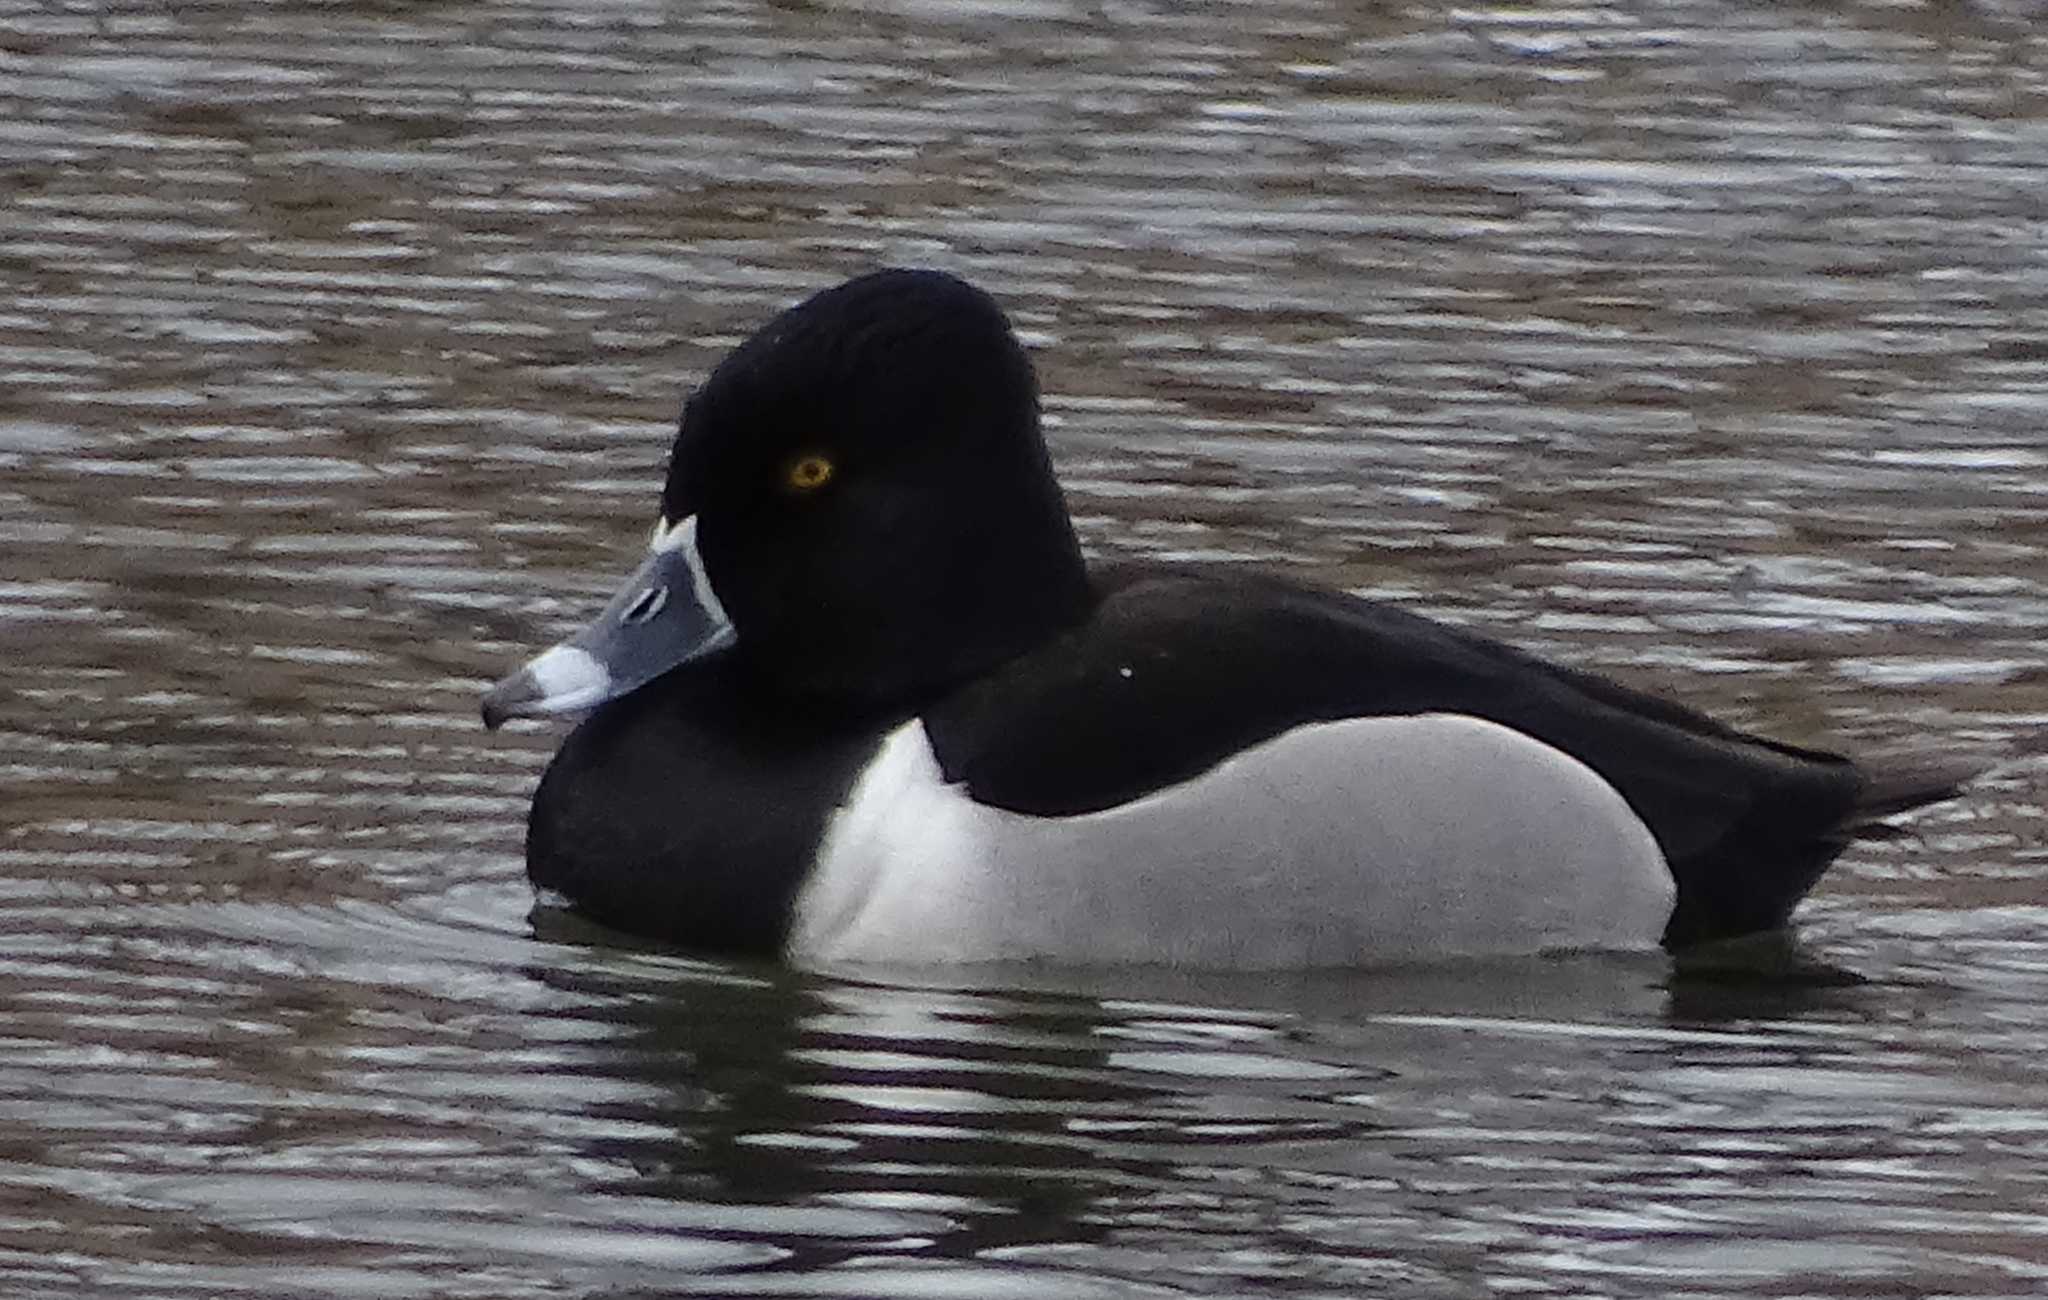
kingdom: Animalia
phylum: Chordata
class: Aves
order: Anseriformes
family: Anatidae
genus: Aythya
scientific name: Aythya collaris
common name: Ring-necked duck
